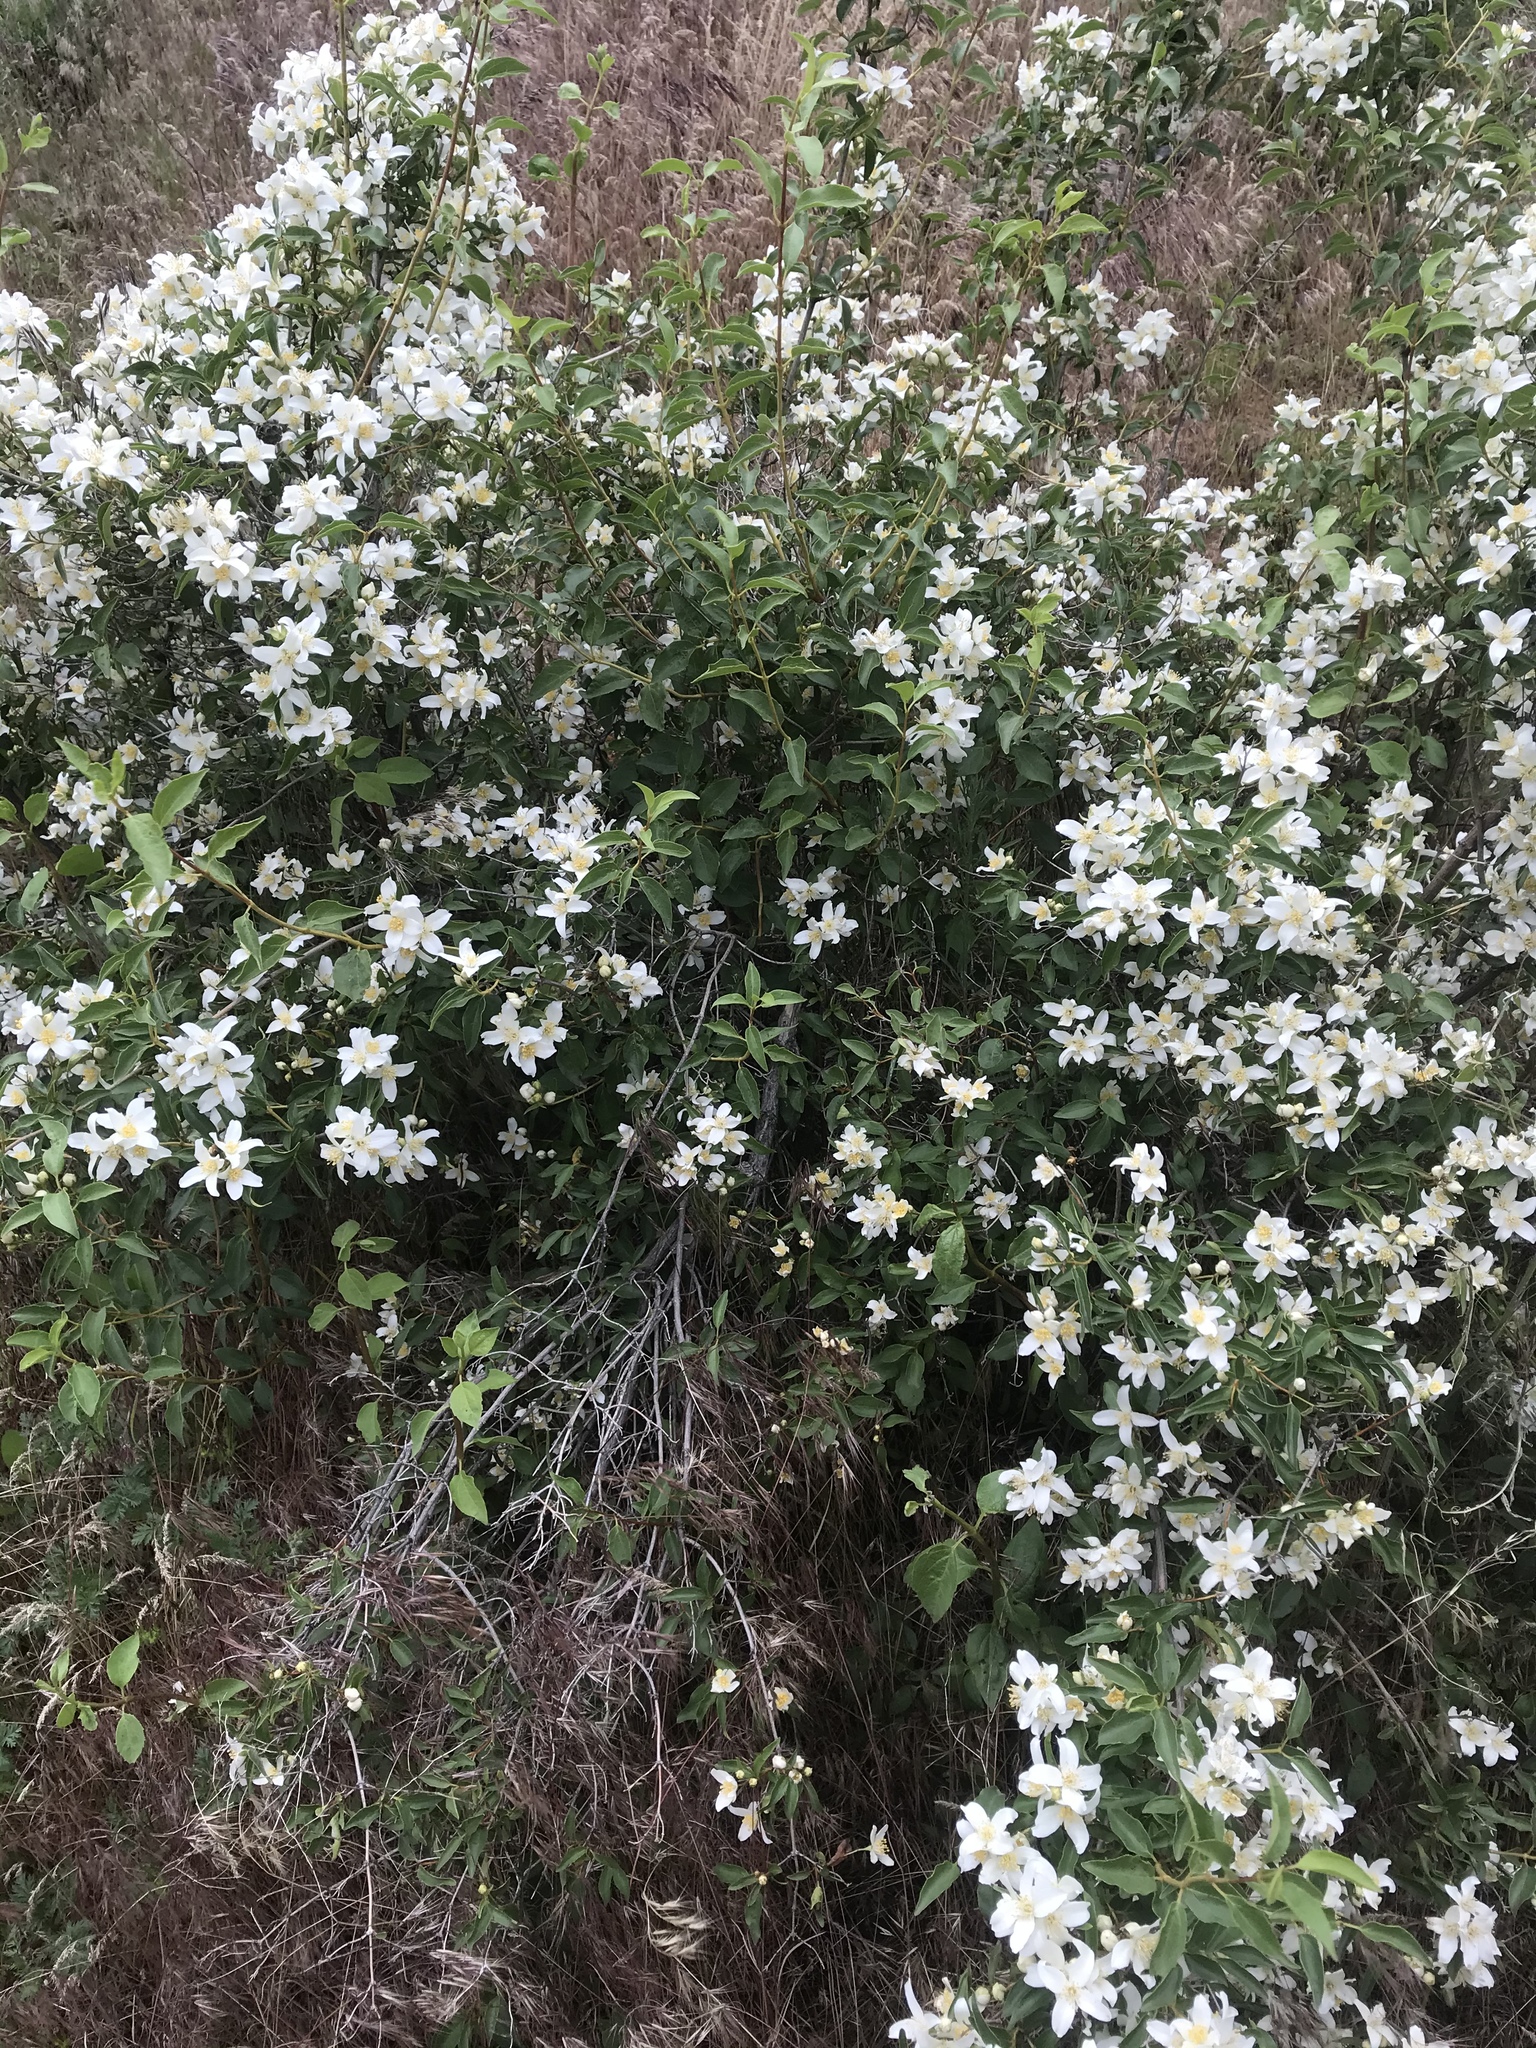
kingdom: Plantae
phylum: Tracheophyta
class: Magnoliopsida
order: Cornales
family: Hydrangeaceae
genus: Philadelphus
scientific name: Philadelphus lewisii
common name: Lewis's mock orange
